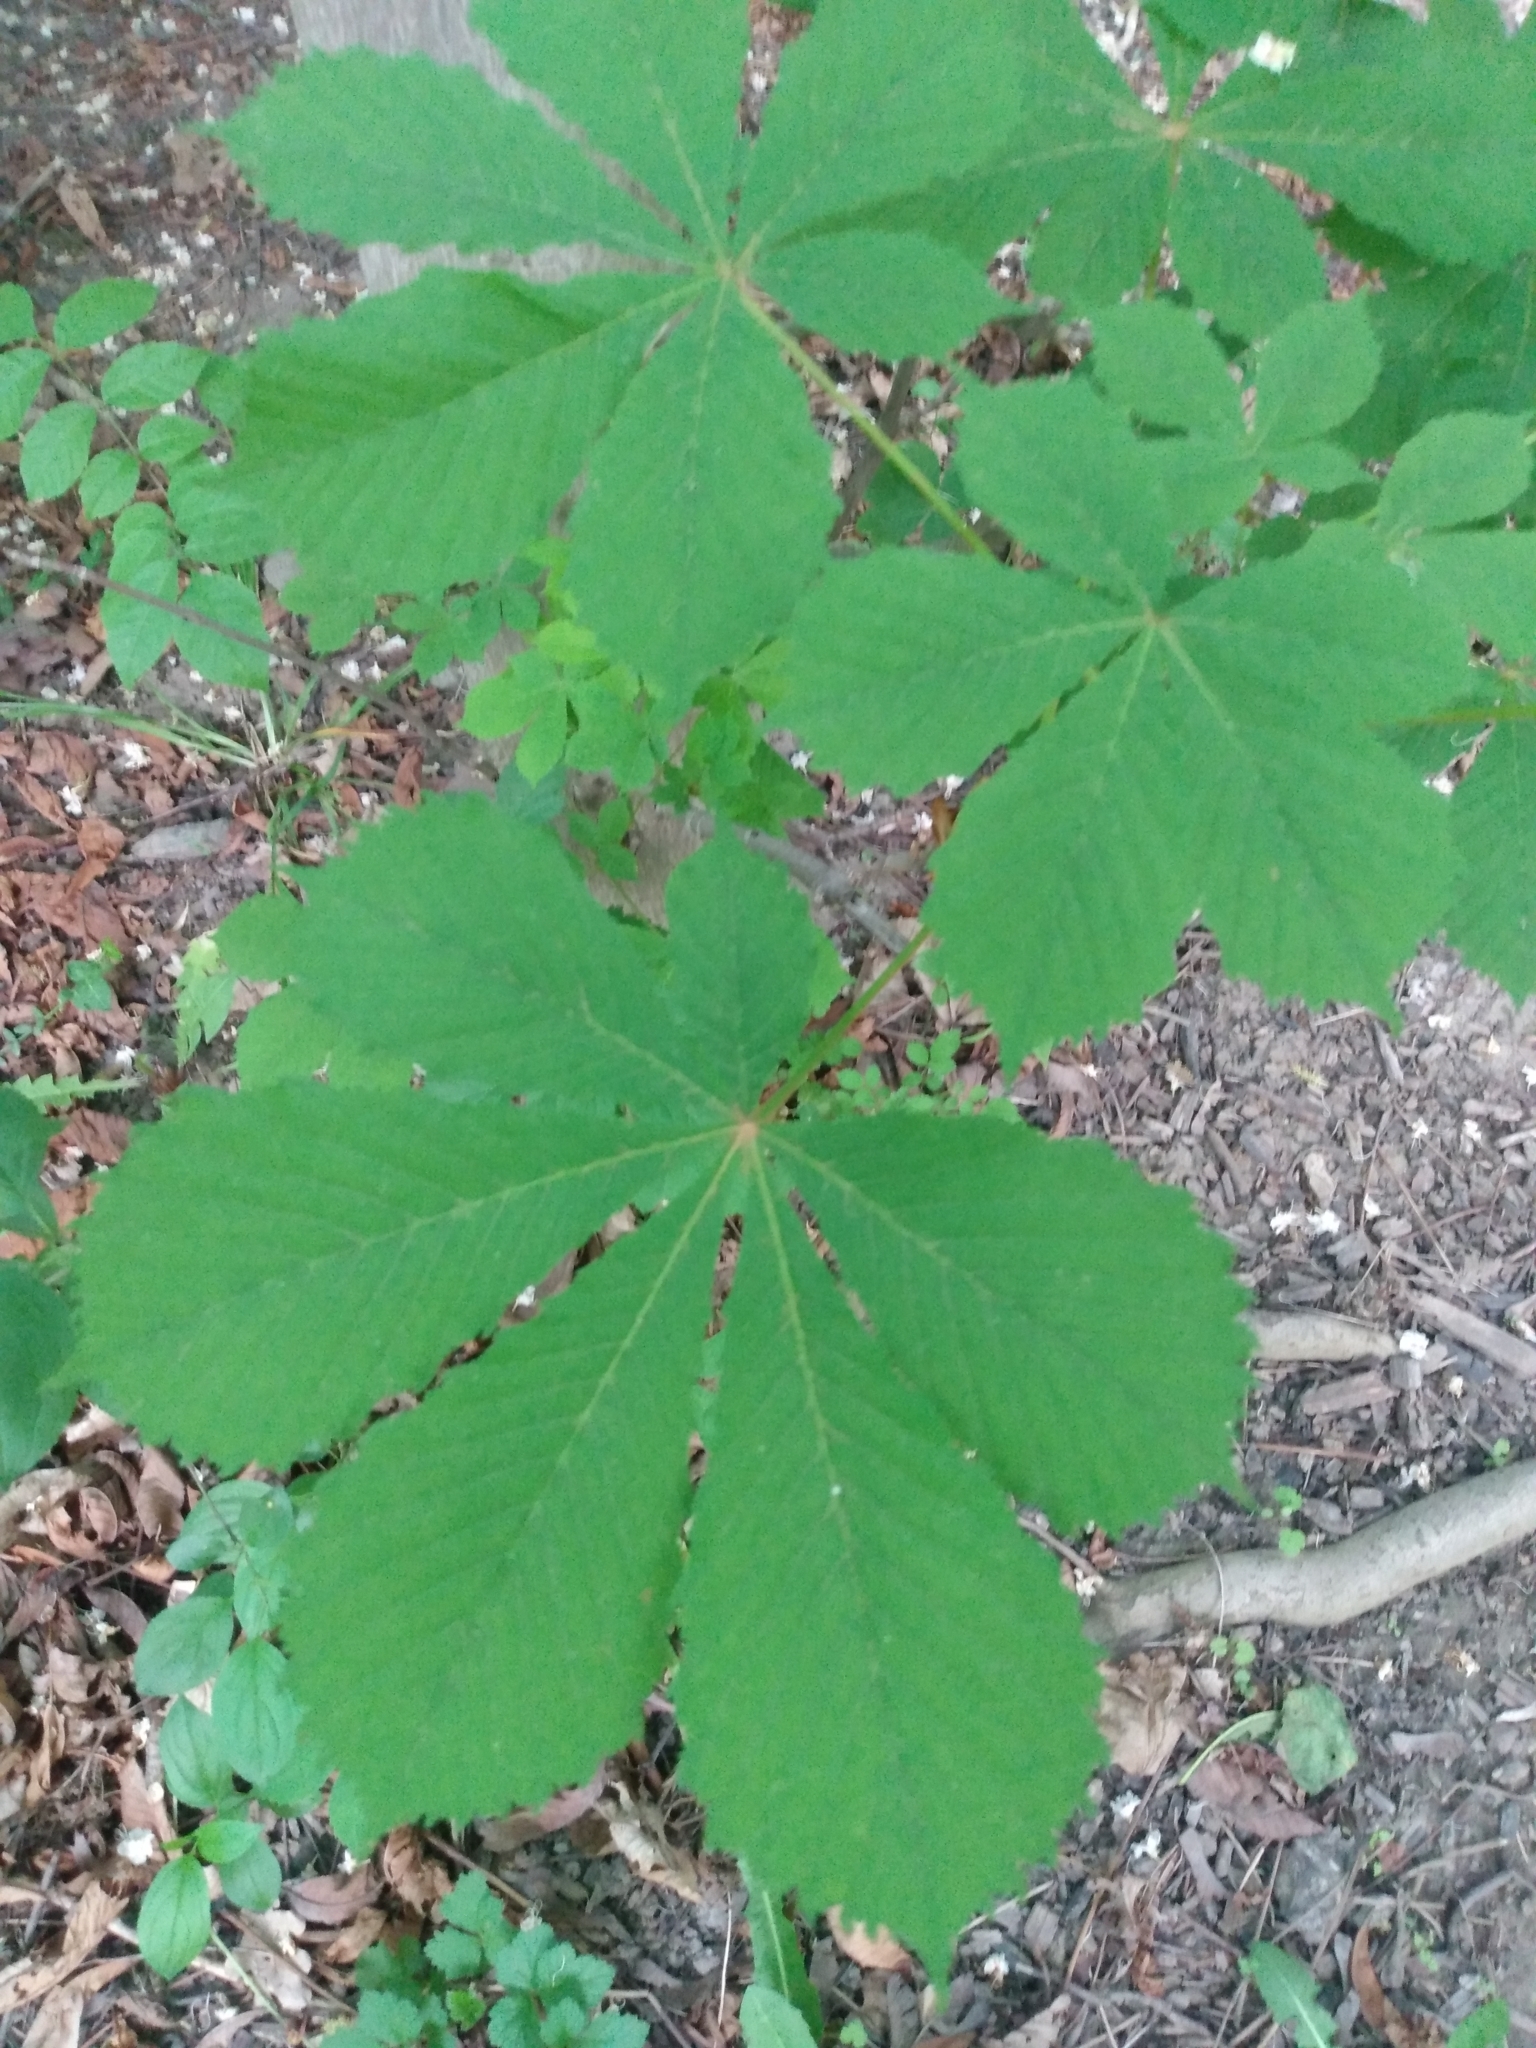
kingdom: Plantae
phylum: Tracheophyta
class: Magnoliopsida
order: Sapindales
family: Sapindaceae
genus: Aesculus
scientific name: Aesculus hippocastanum
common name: Horse-chestnut
